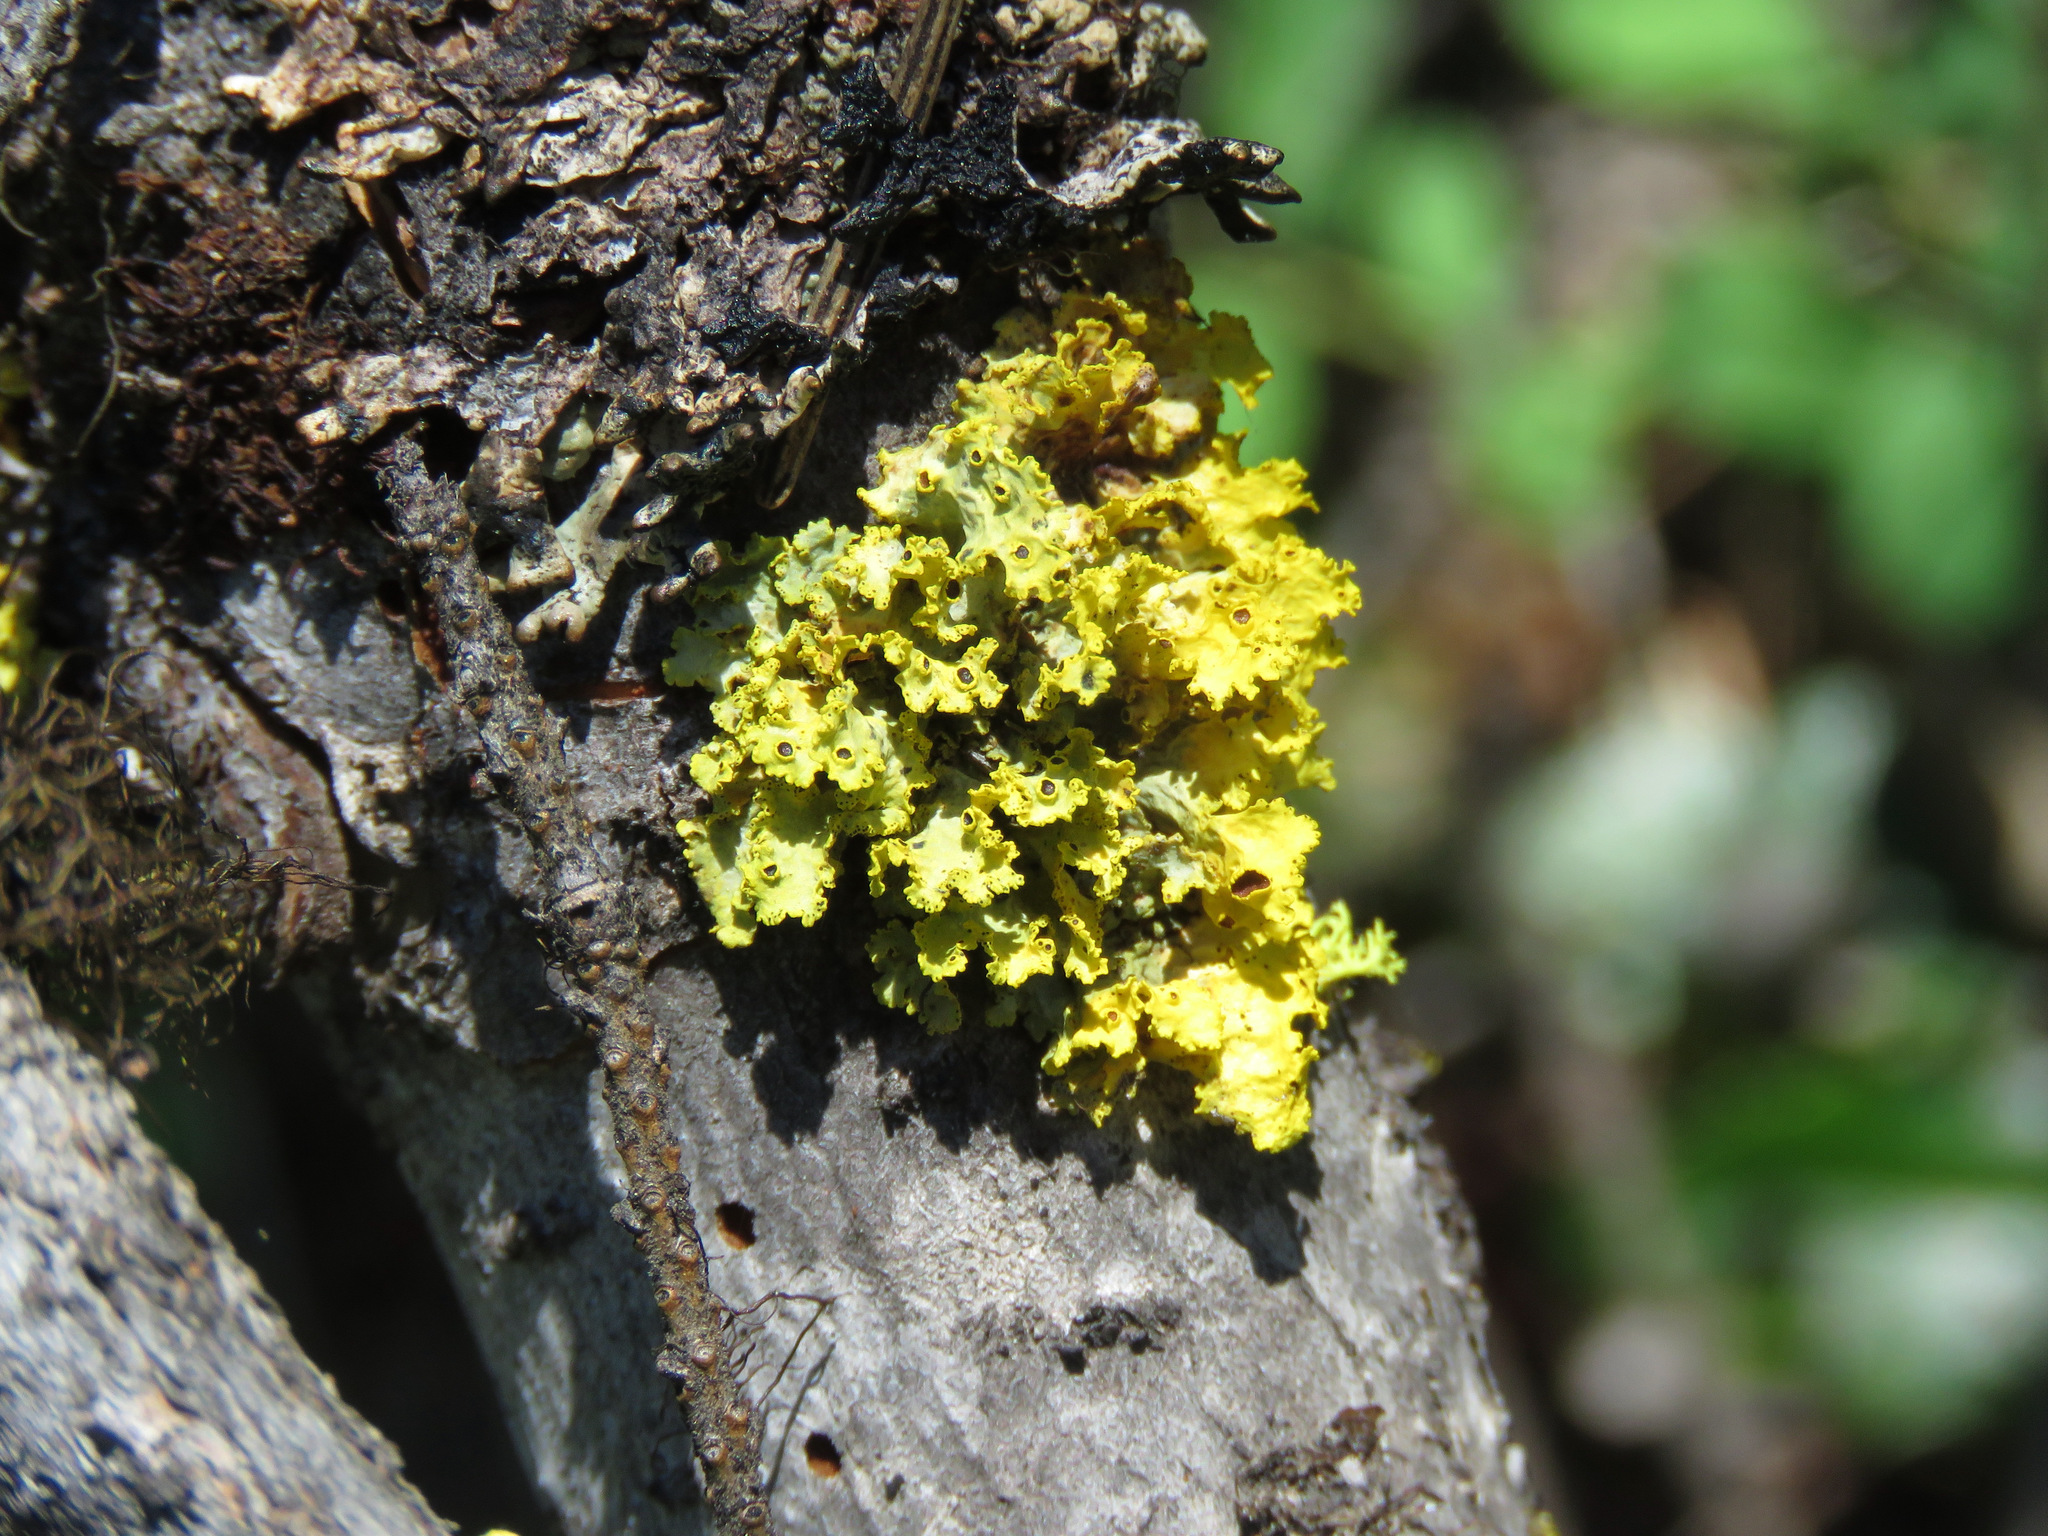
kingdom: Fungi
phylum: Ascomycota
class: Lecanoromycetes
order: Lecanorales
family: Parmeliaceae
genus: Vulpicida
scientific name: Vulpicida canadensis
